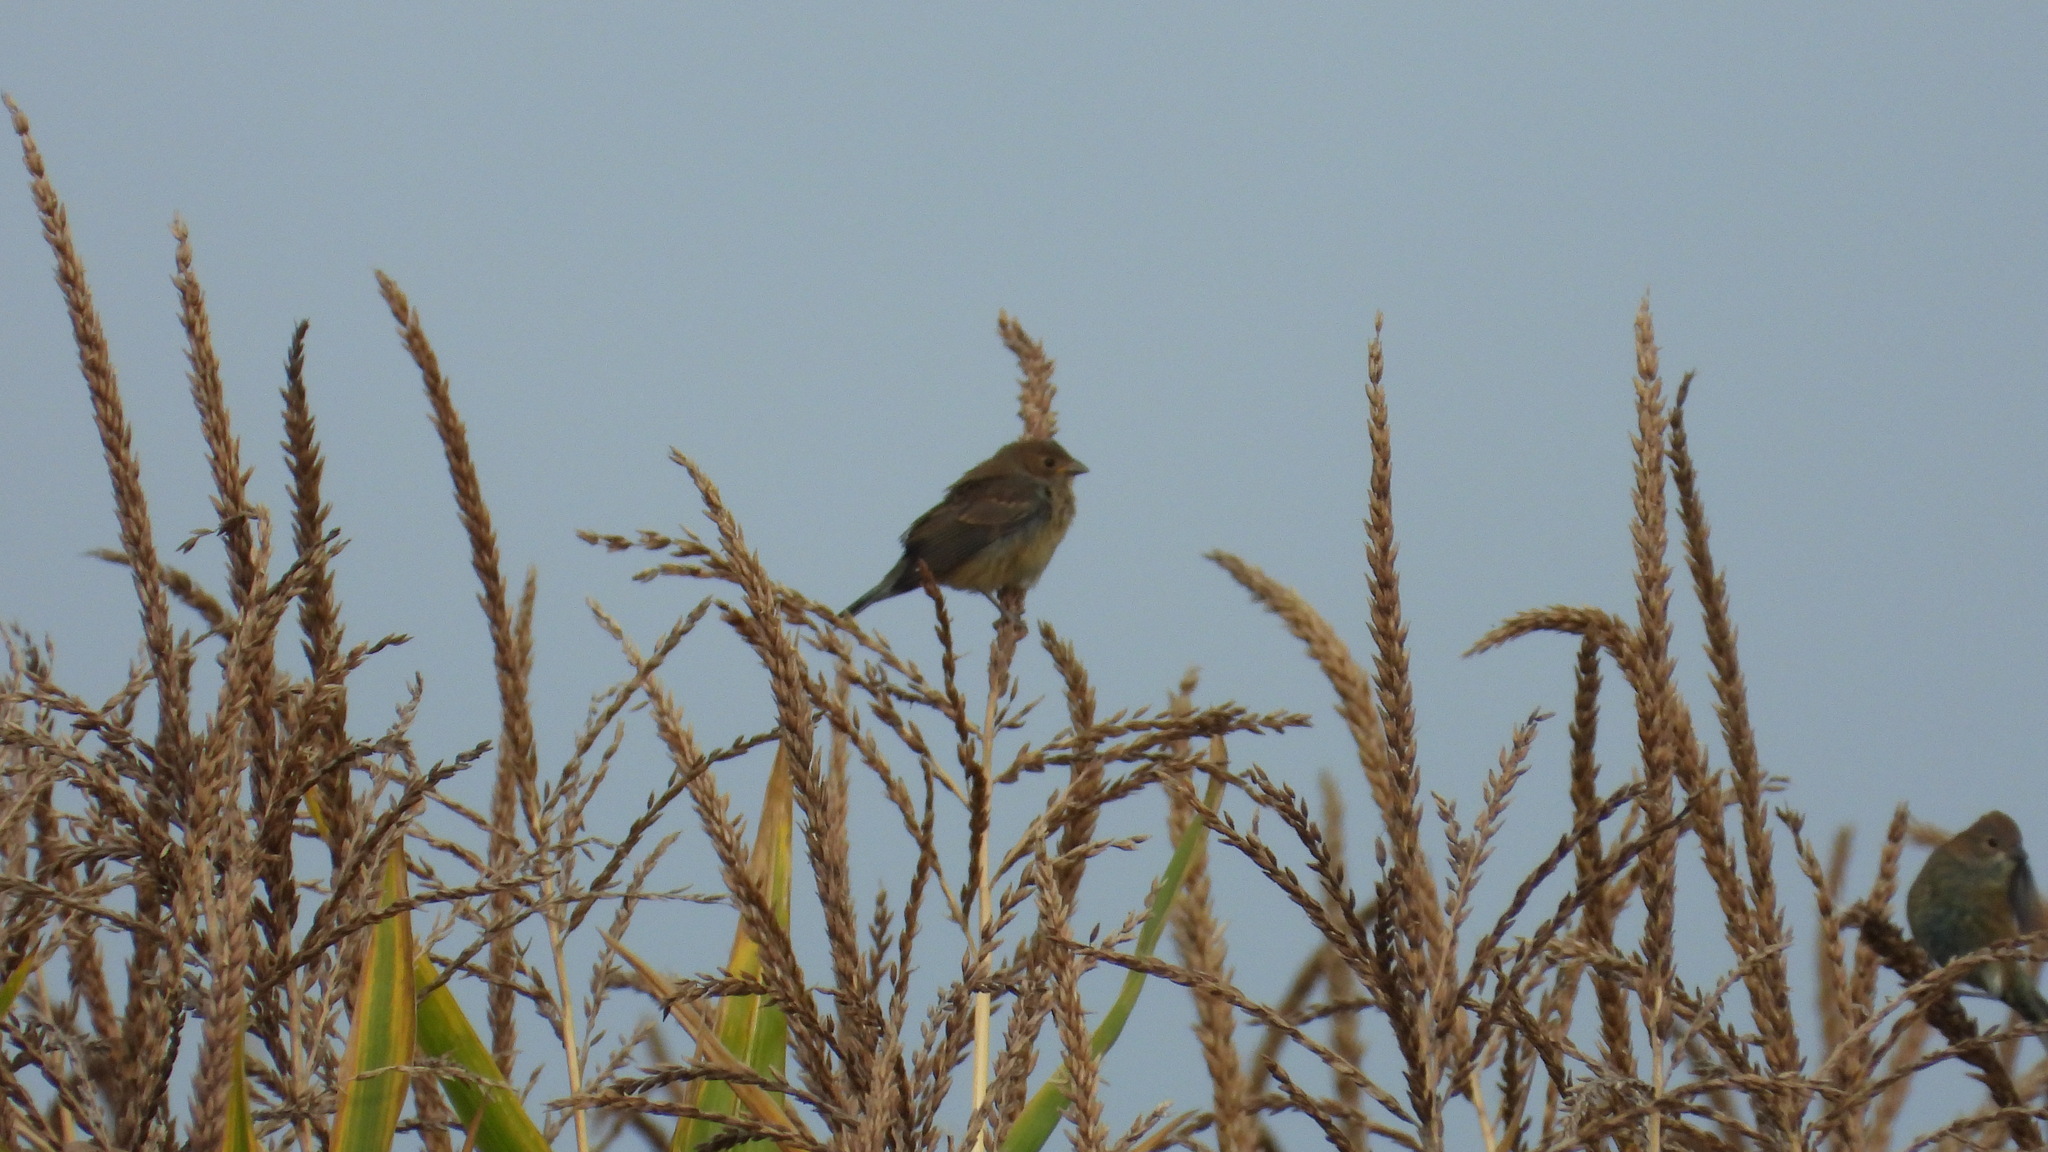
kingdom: Animalia
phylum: Chordata
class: Aves
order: Passeriformes
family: Cardinalidae
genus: Passerina
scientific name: Passerina cyanea
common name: Indigo bunting
